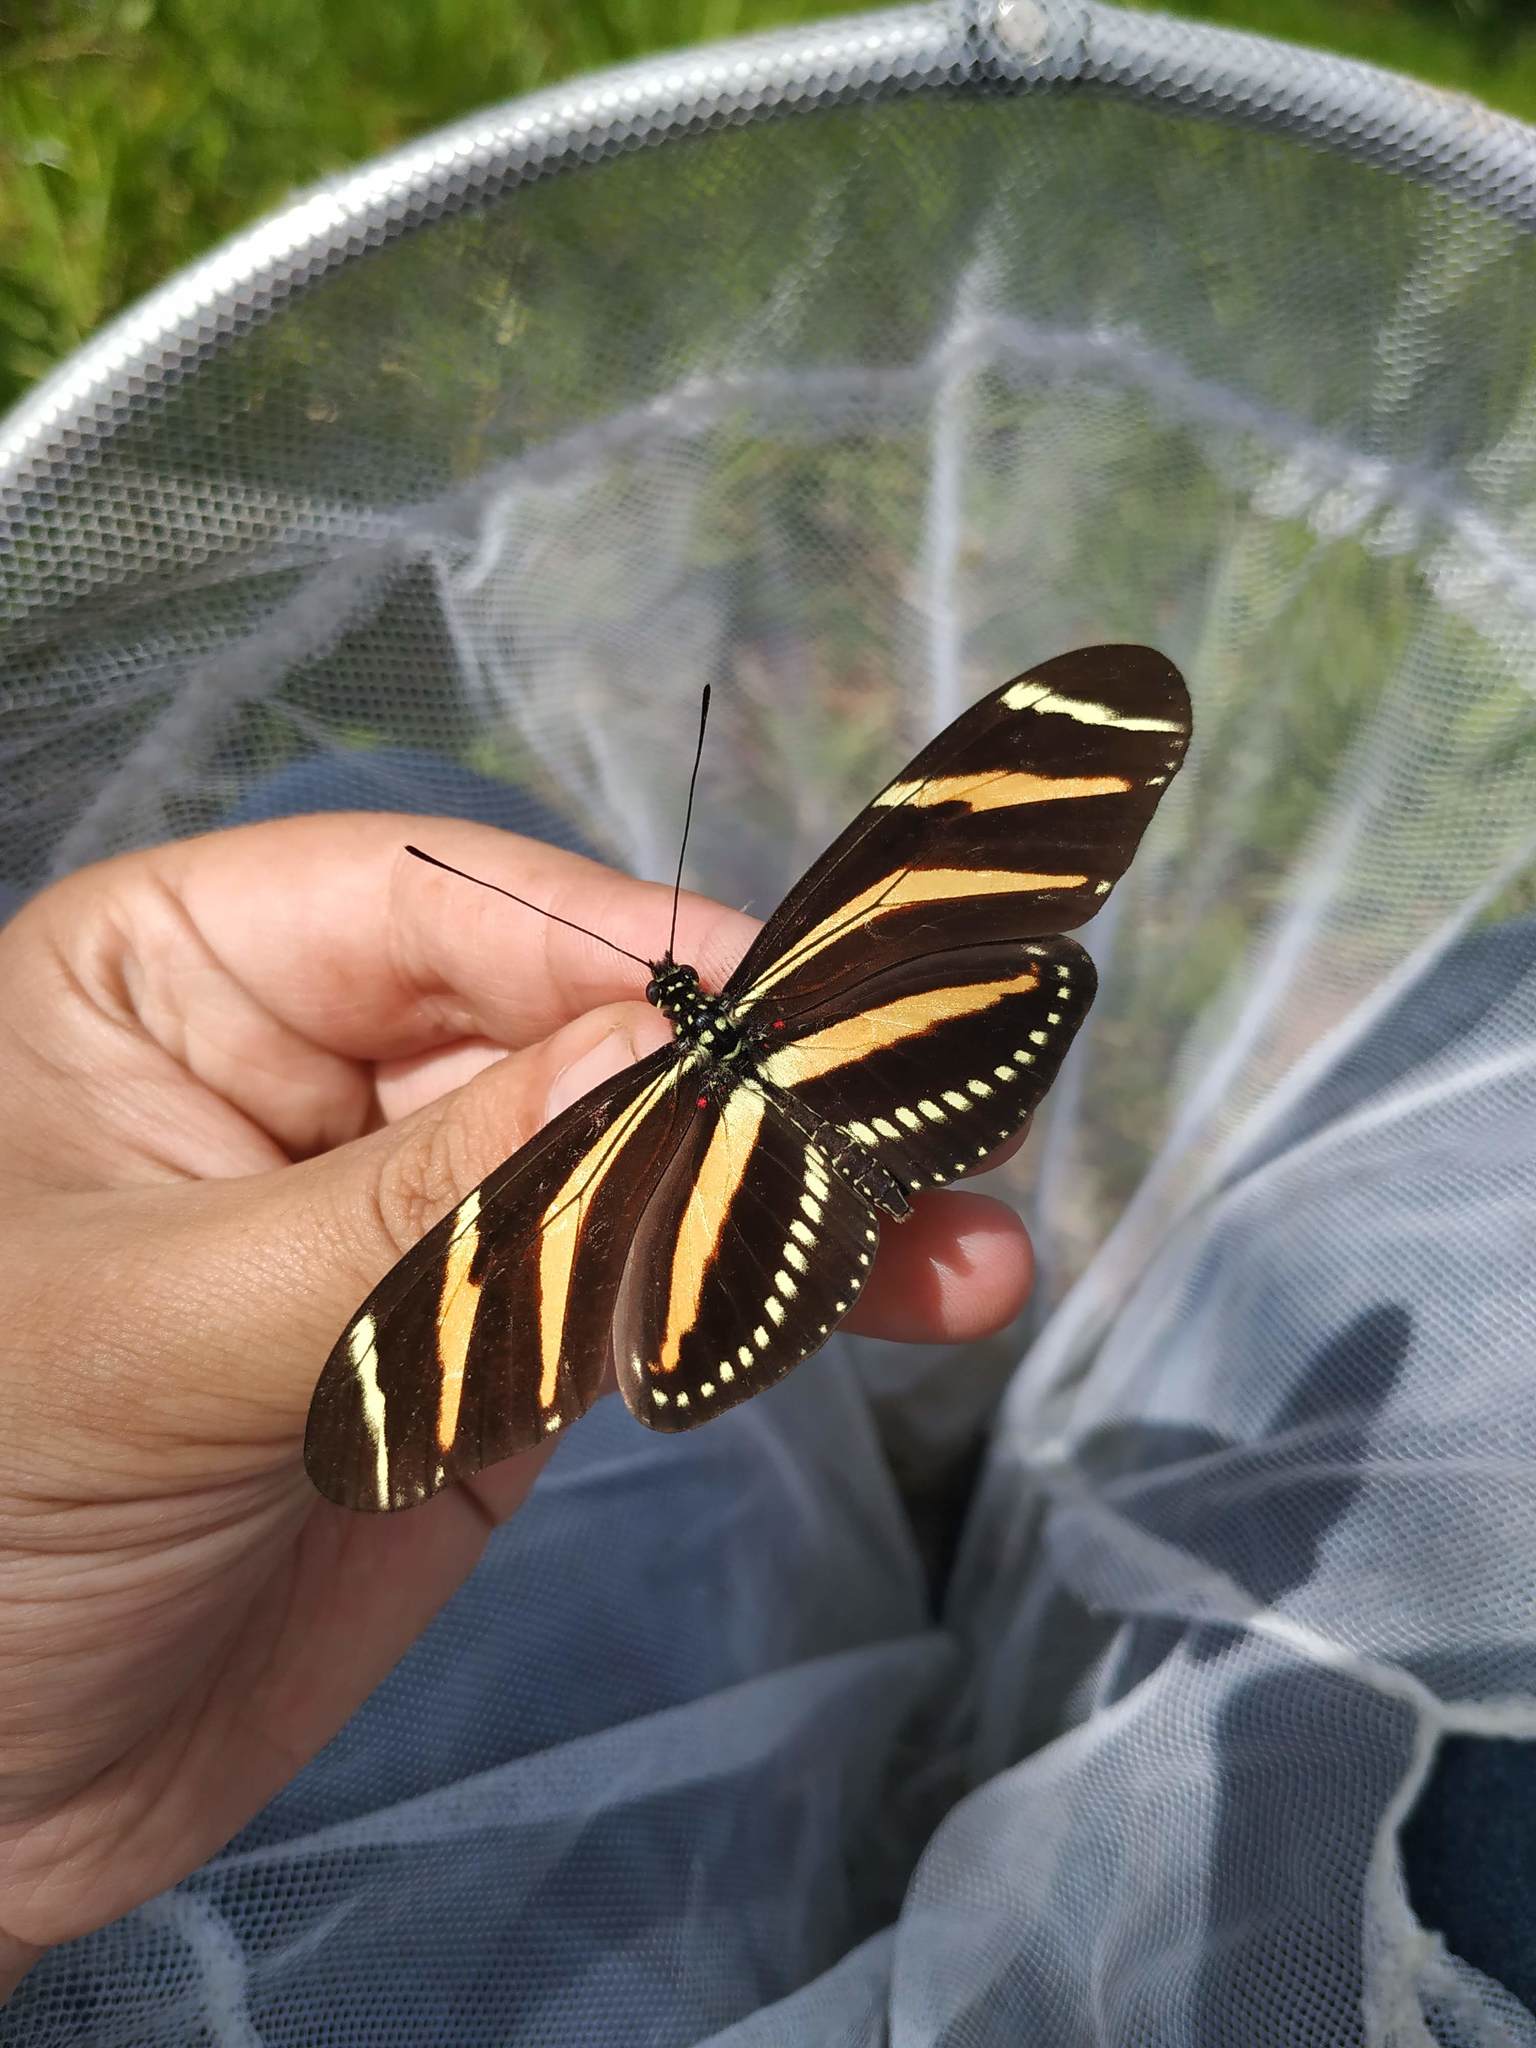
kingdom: Animalia
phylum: Arthropoda
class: Insecta
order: Lepidoptera
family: Nymphalidae
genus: Heliconius
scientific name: Heliconius charithonia
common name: Zebra long wing
